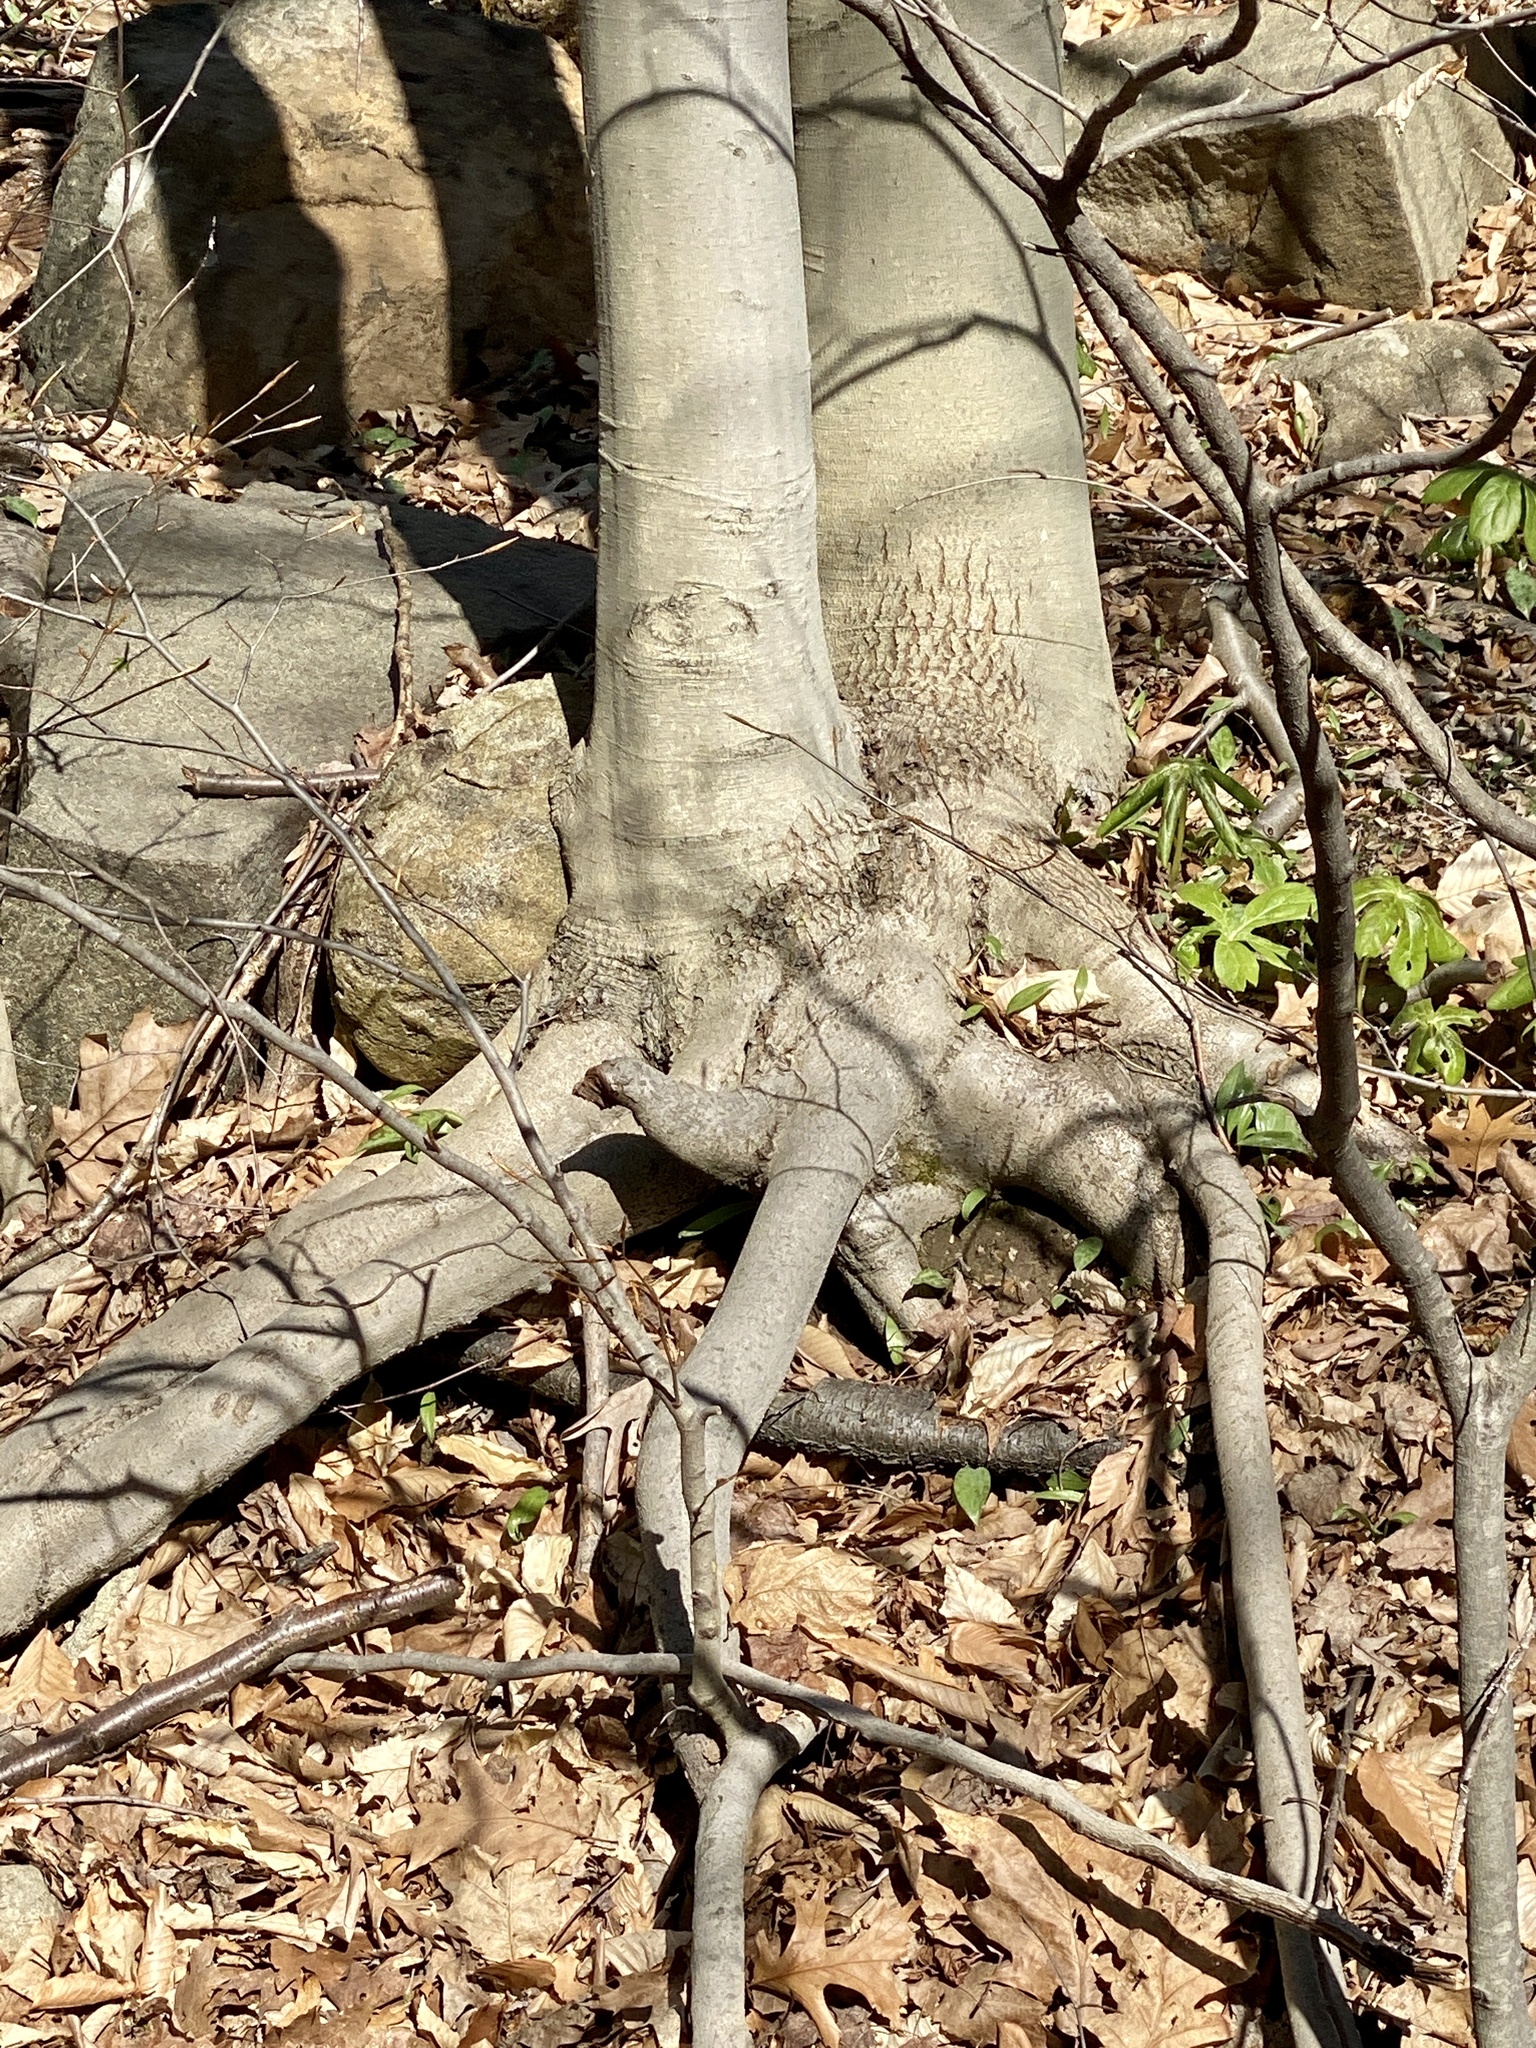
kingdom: Plantae
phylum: Tracheophyta
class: Magnoliopsida
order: Fagales
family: Fagaceae
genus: Fagus
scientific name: Fagus grandifolia
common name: American beech
